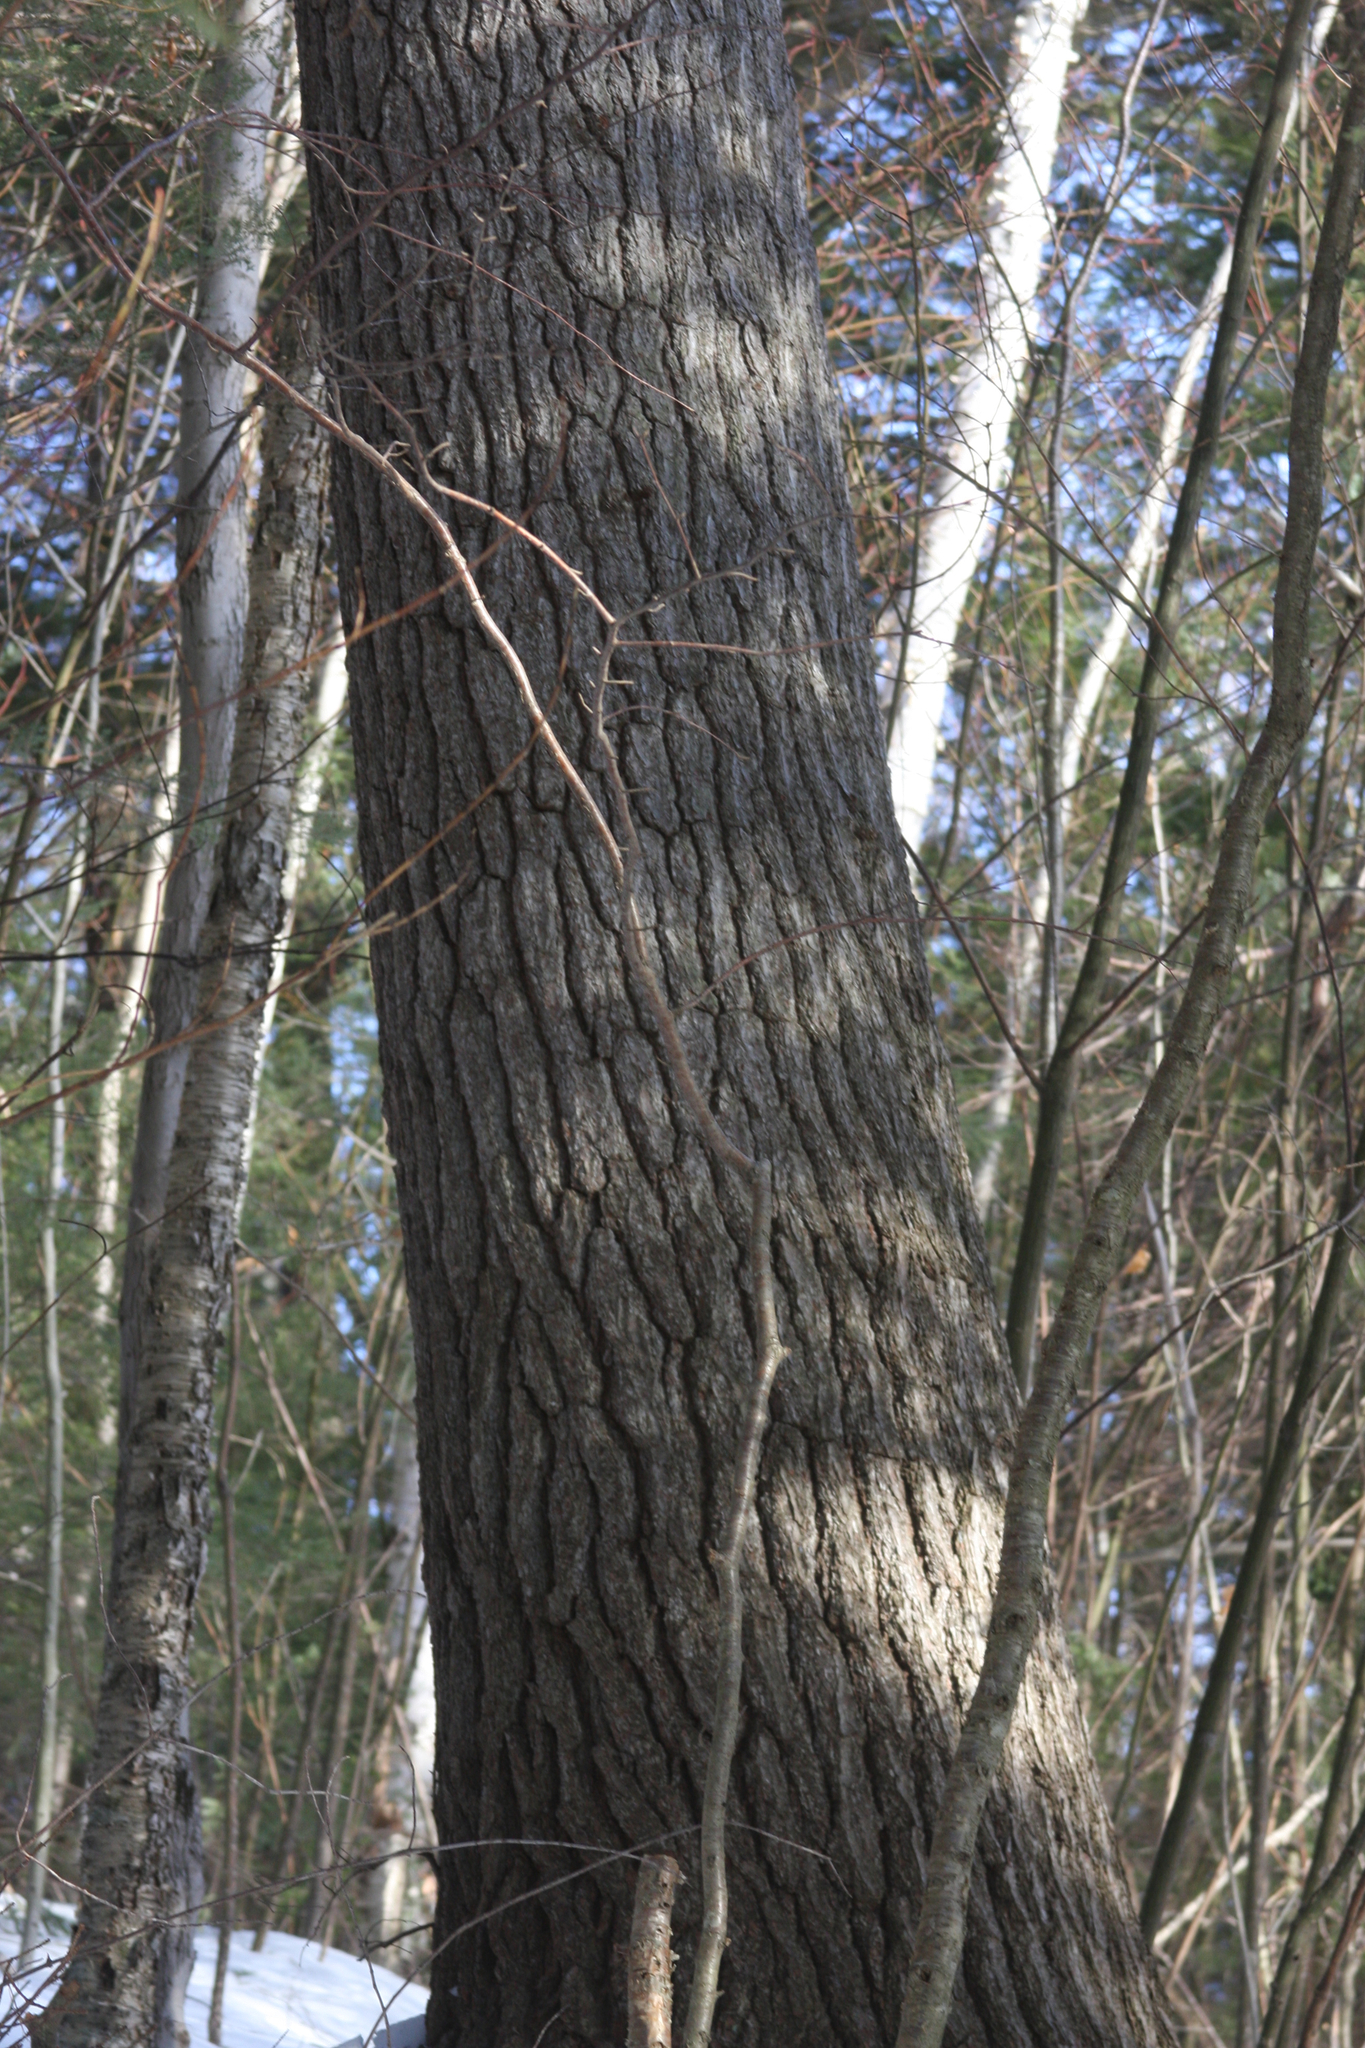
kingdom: Plantae
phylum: Tracheophyta
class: Pinopsida
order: Pinales
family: Pinaceae
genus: Pinus
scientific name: Pinus strobus
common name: Weymouth pine
